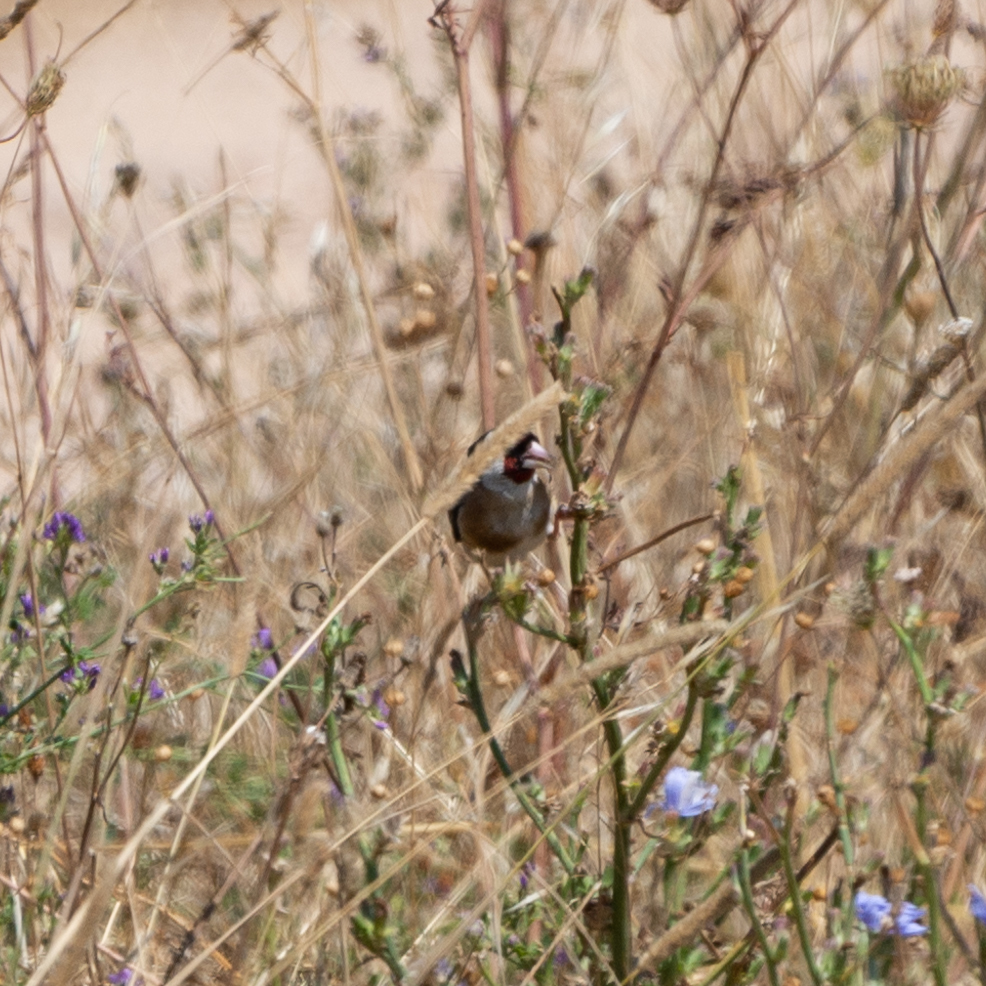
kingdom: Animalia
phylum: Chordata
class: Aves
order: Passeriformes
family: Fringillidae
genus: Carduelis
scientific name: Carduelis carduelis
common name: European goldfinch
